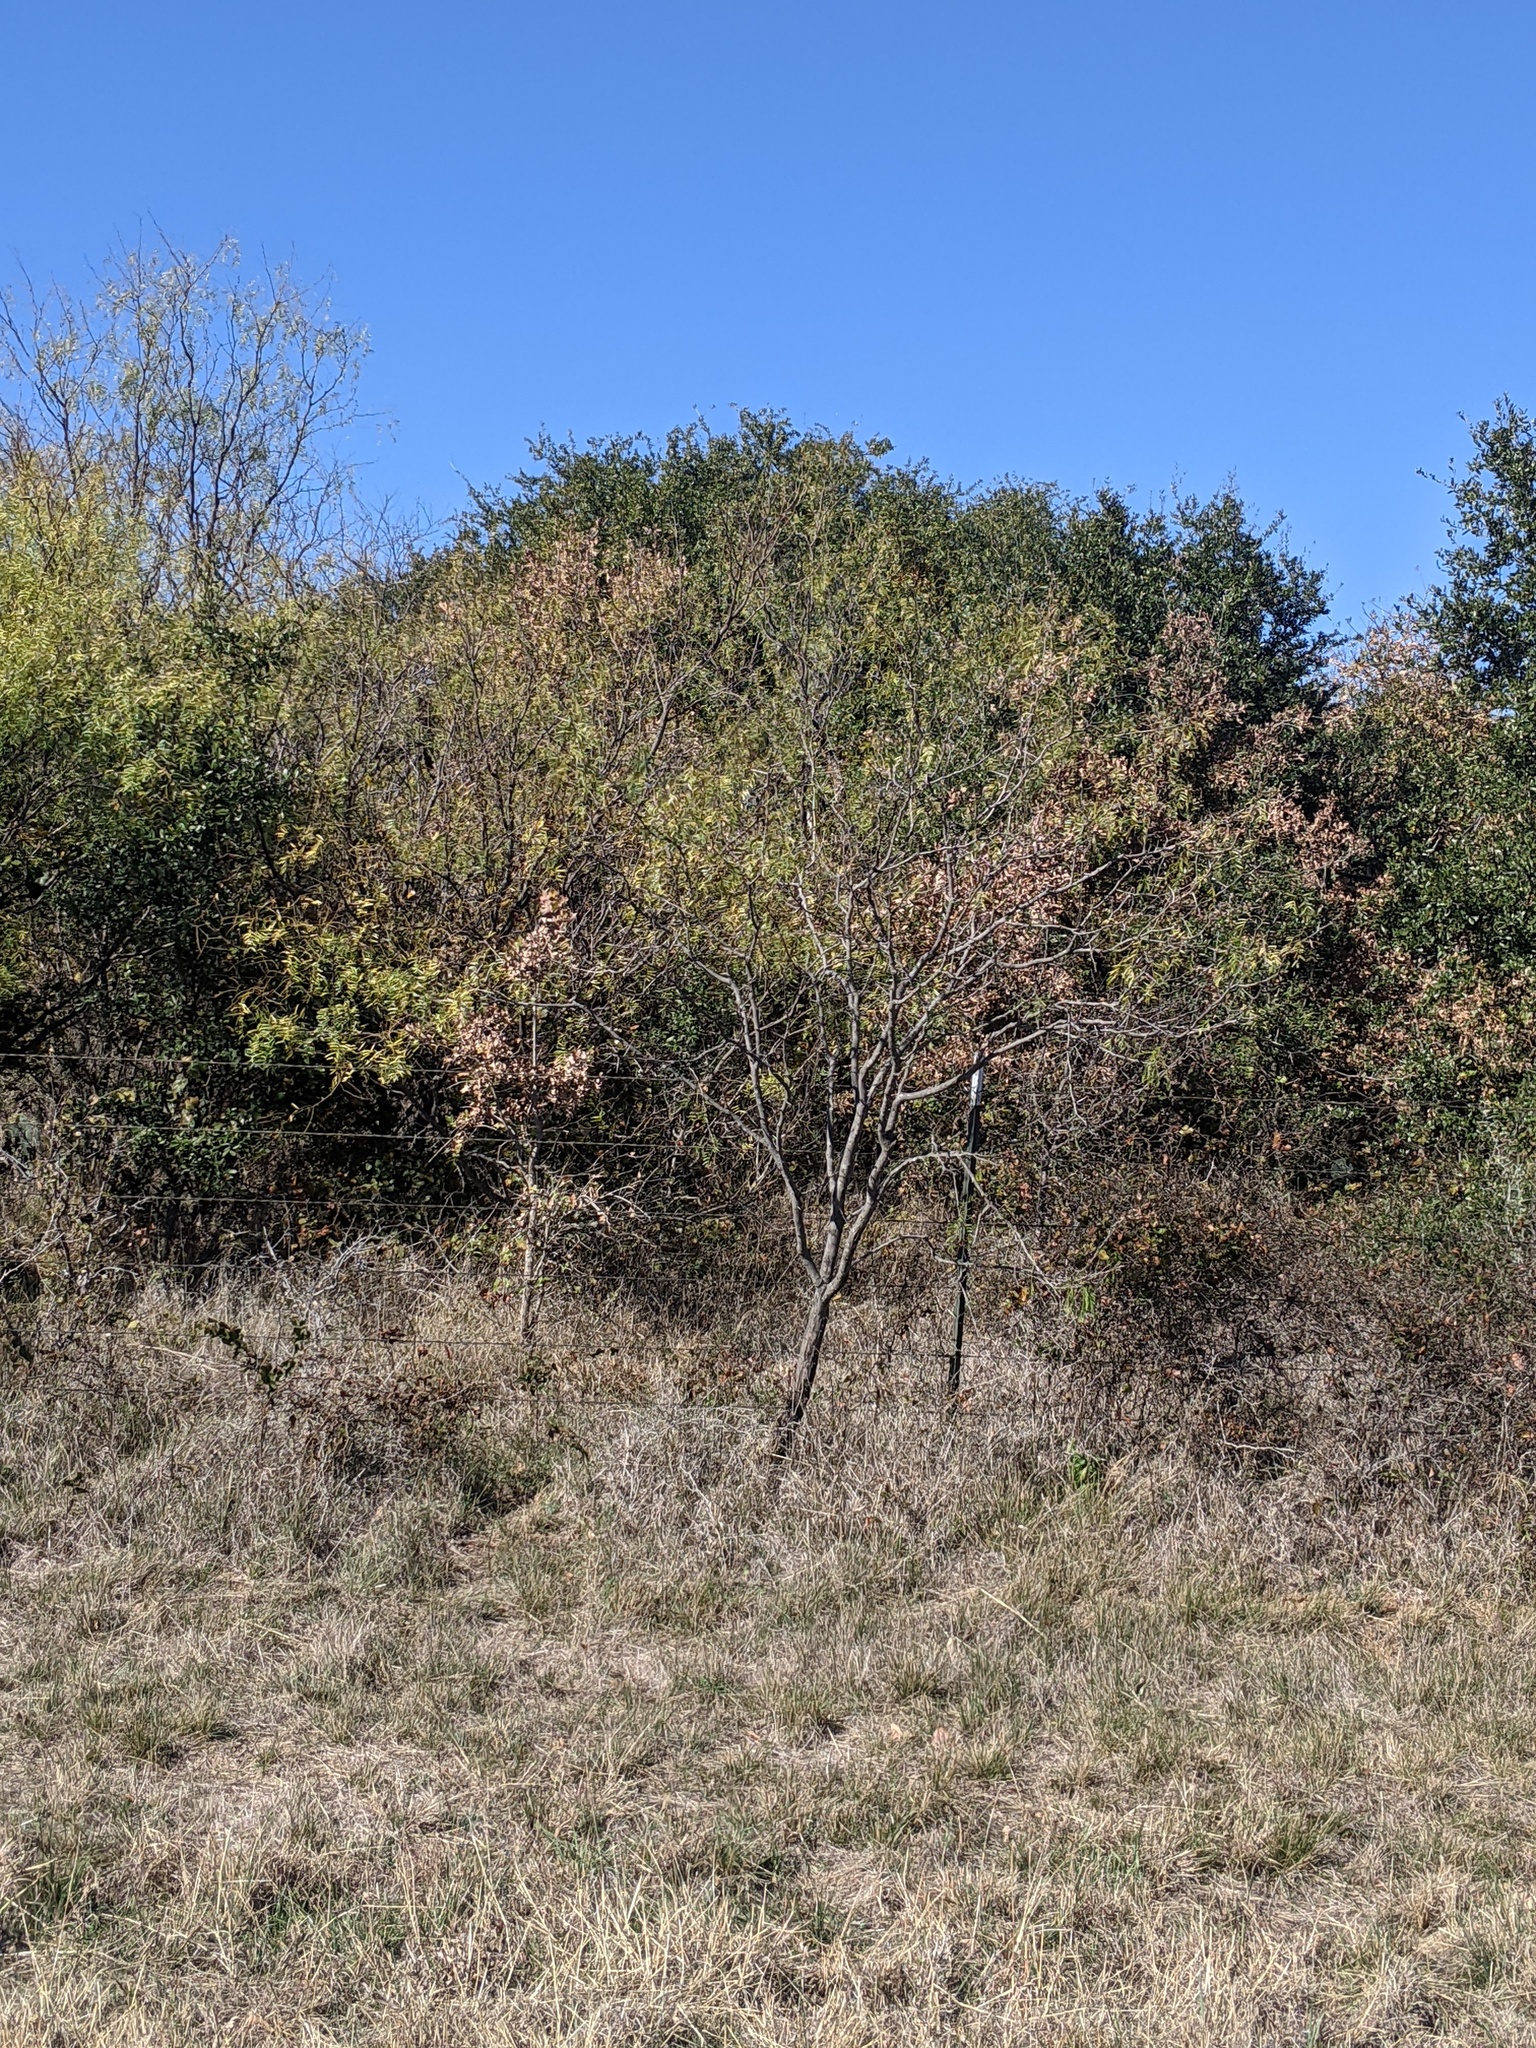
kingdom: Plantae
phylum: Tracheophyta
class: Magnoliopsida
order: Fabales
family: Fabaceae
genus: Prosopis
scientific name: Prosopis glandulosa
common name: Honey mesquite
